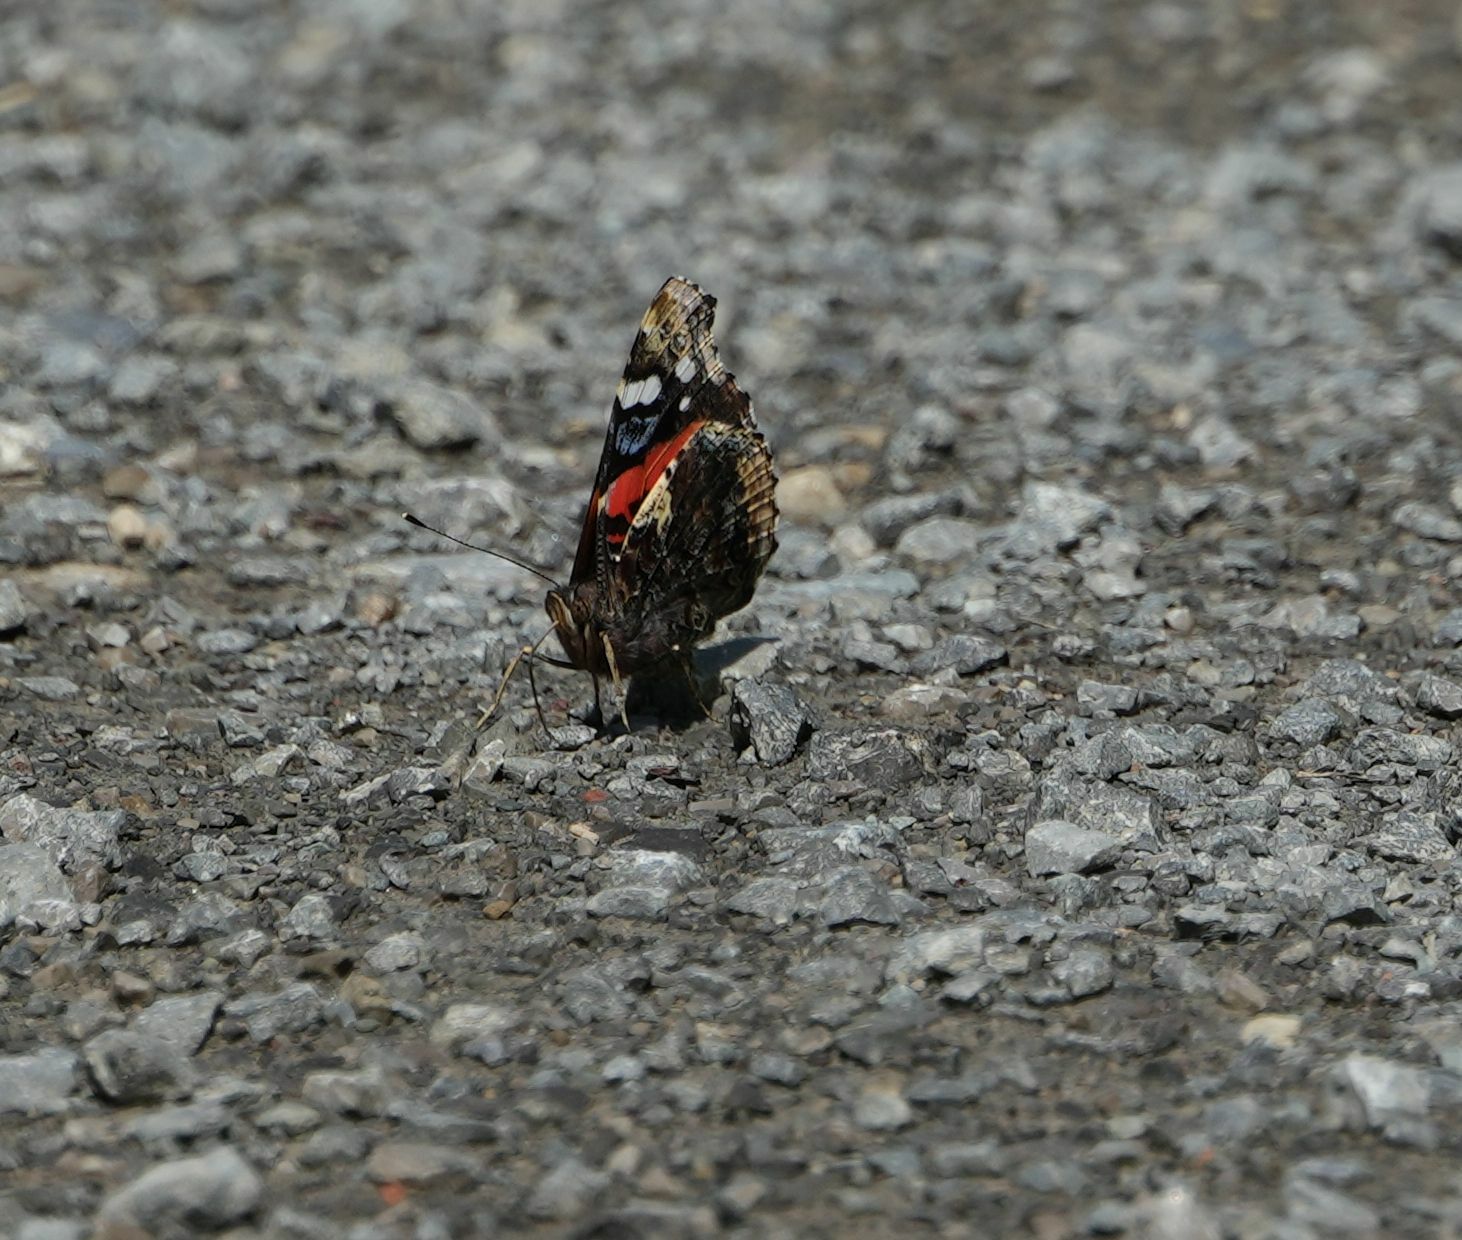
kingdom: Animalia
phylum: Arthropoda
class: Insecta
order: Lepidoptera
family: Nymphalidae
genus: Vanessa
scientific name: Vanessa atalanta
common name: Red admiral
